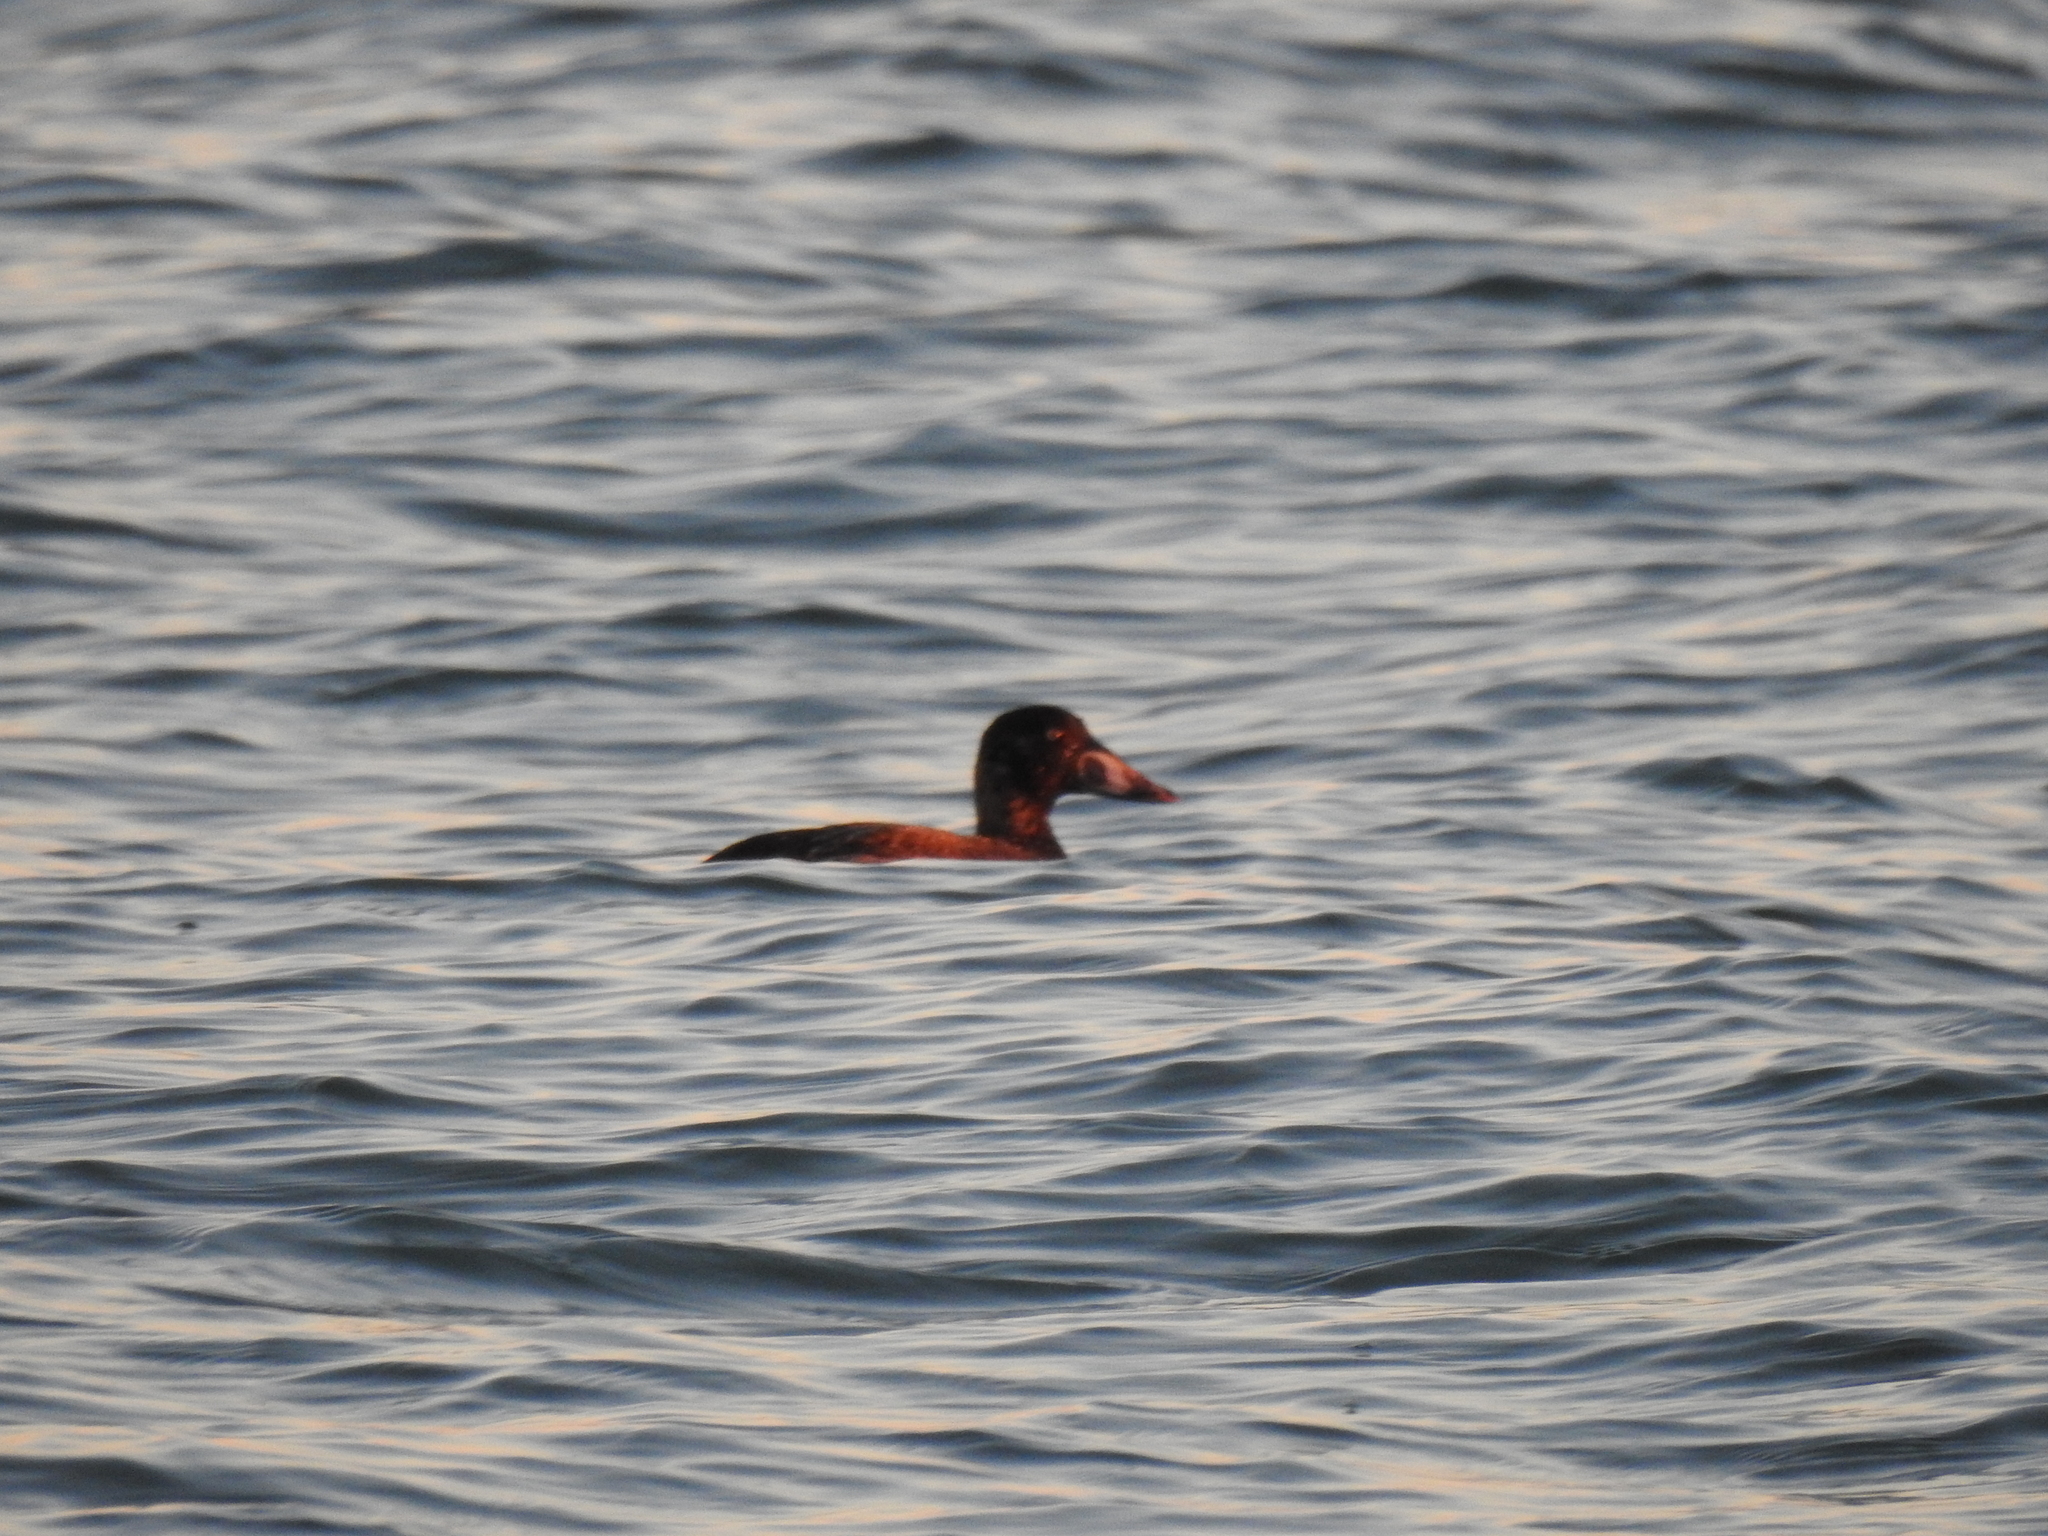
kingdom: Animalia
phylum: Chordata
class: Aves
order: Anseriformes
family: Anatidae
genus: Melanitta
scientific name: Melanitta perspicillata
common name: Surf scoter
